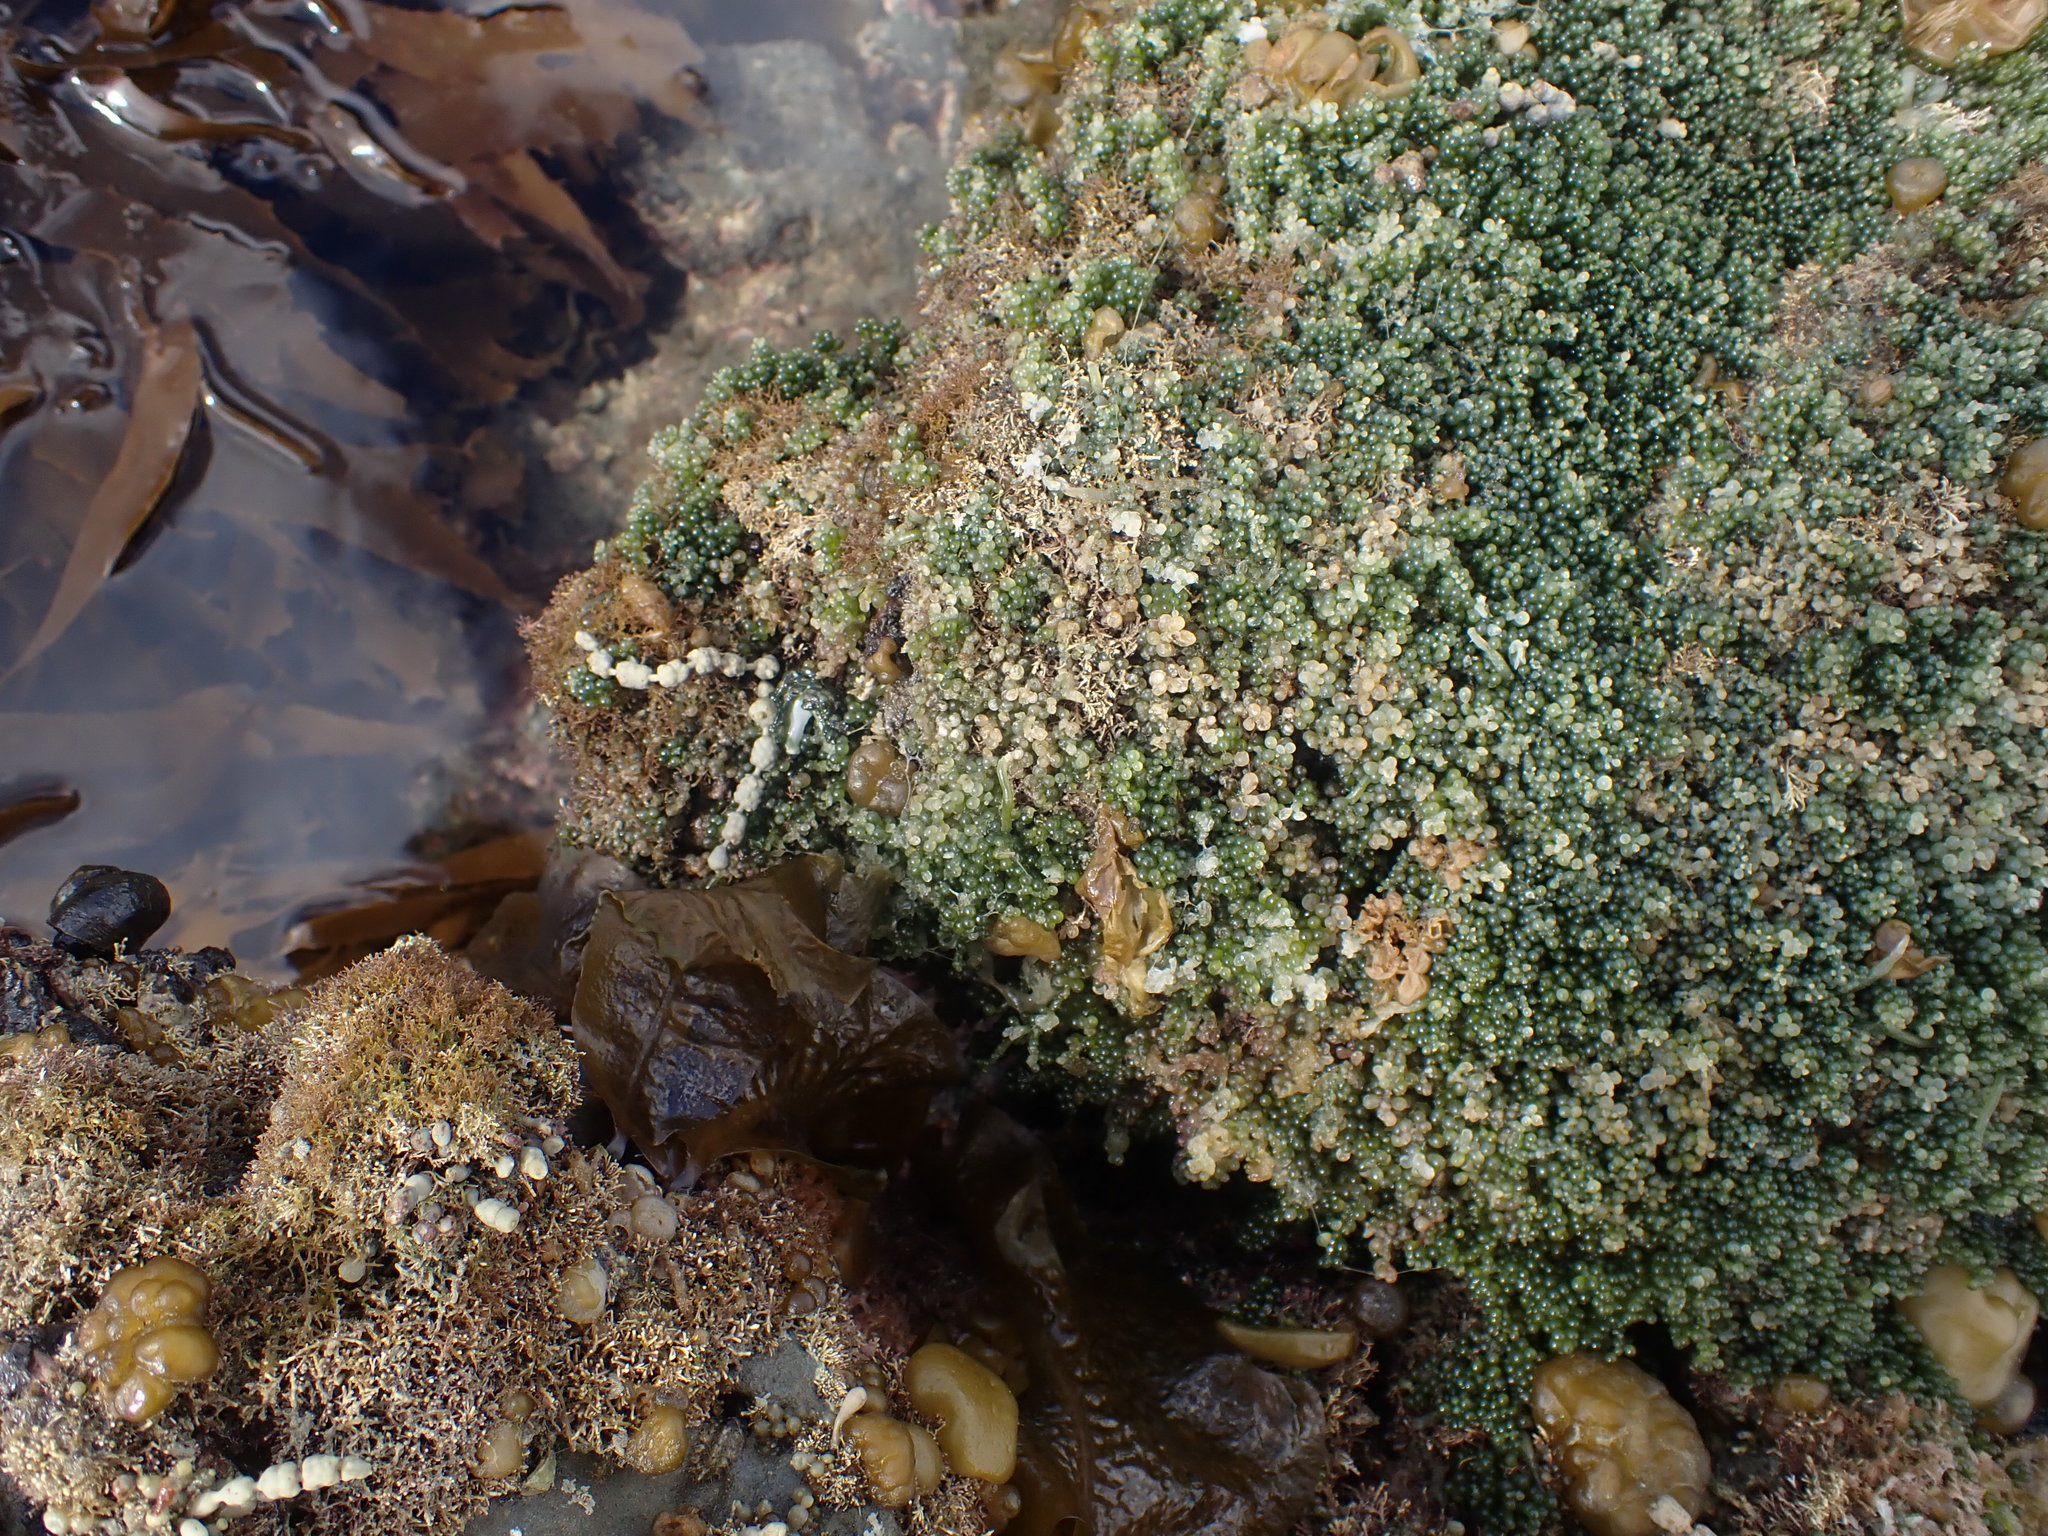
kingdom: Plantae
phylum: Chlorophyta
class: Ulvophyceae
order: Bryopsidales
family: Caulerpaceae
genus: Caulerpa
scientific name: Caulerpa geminata
